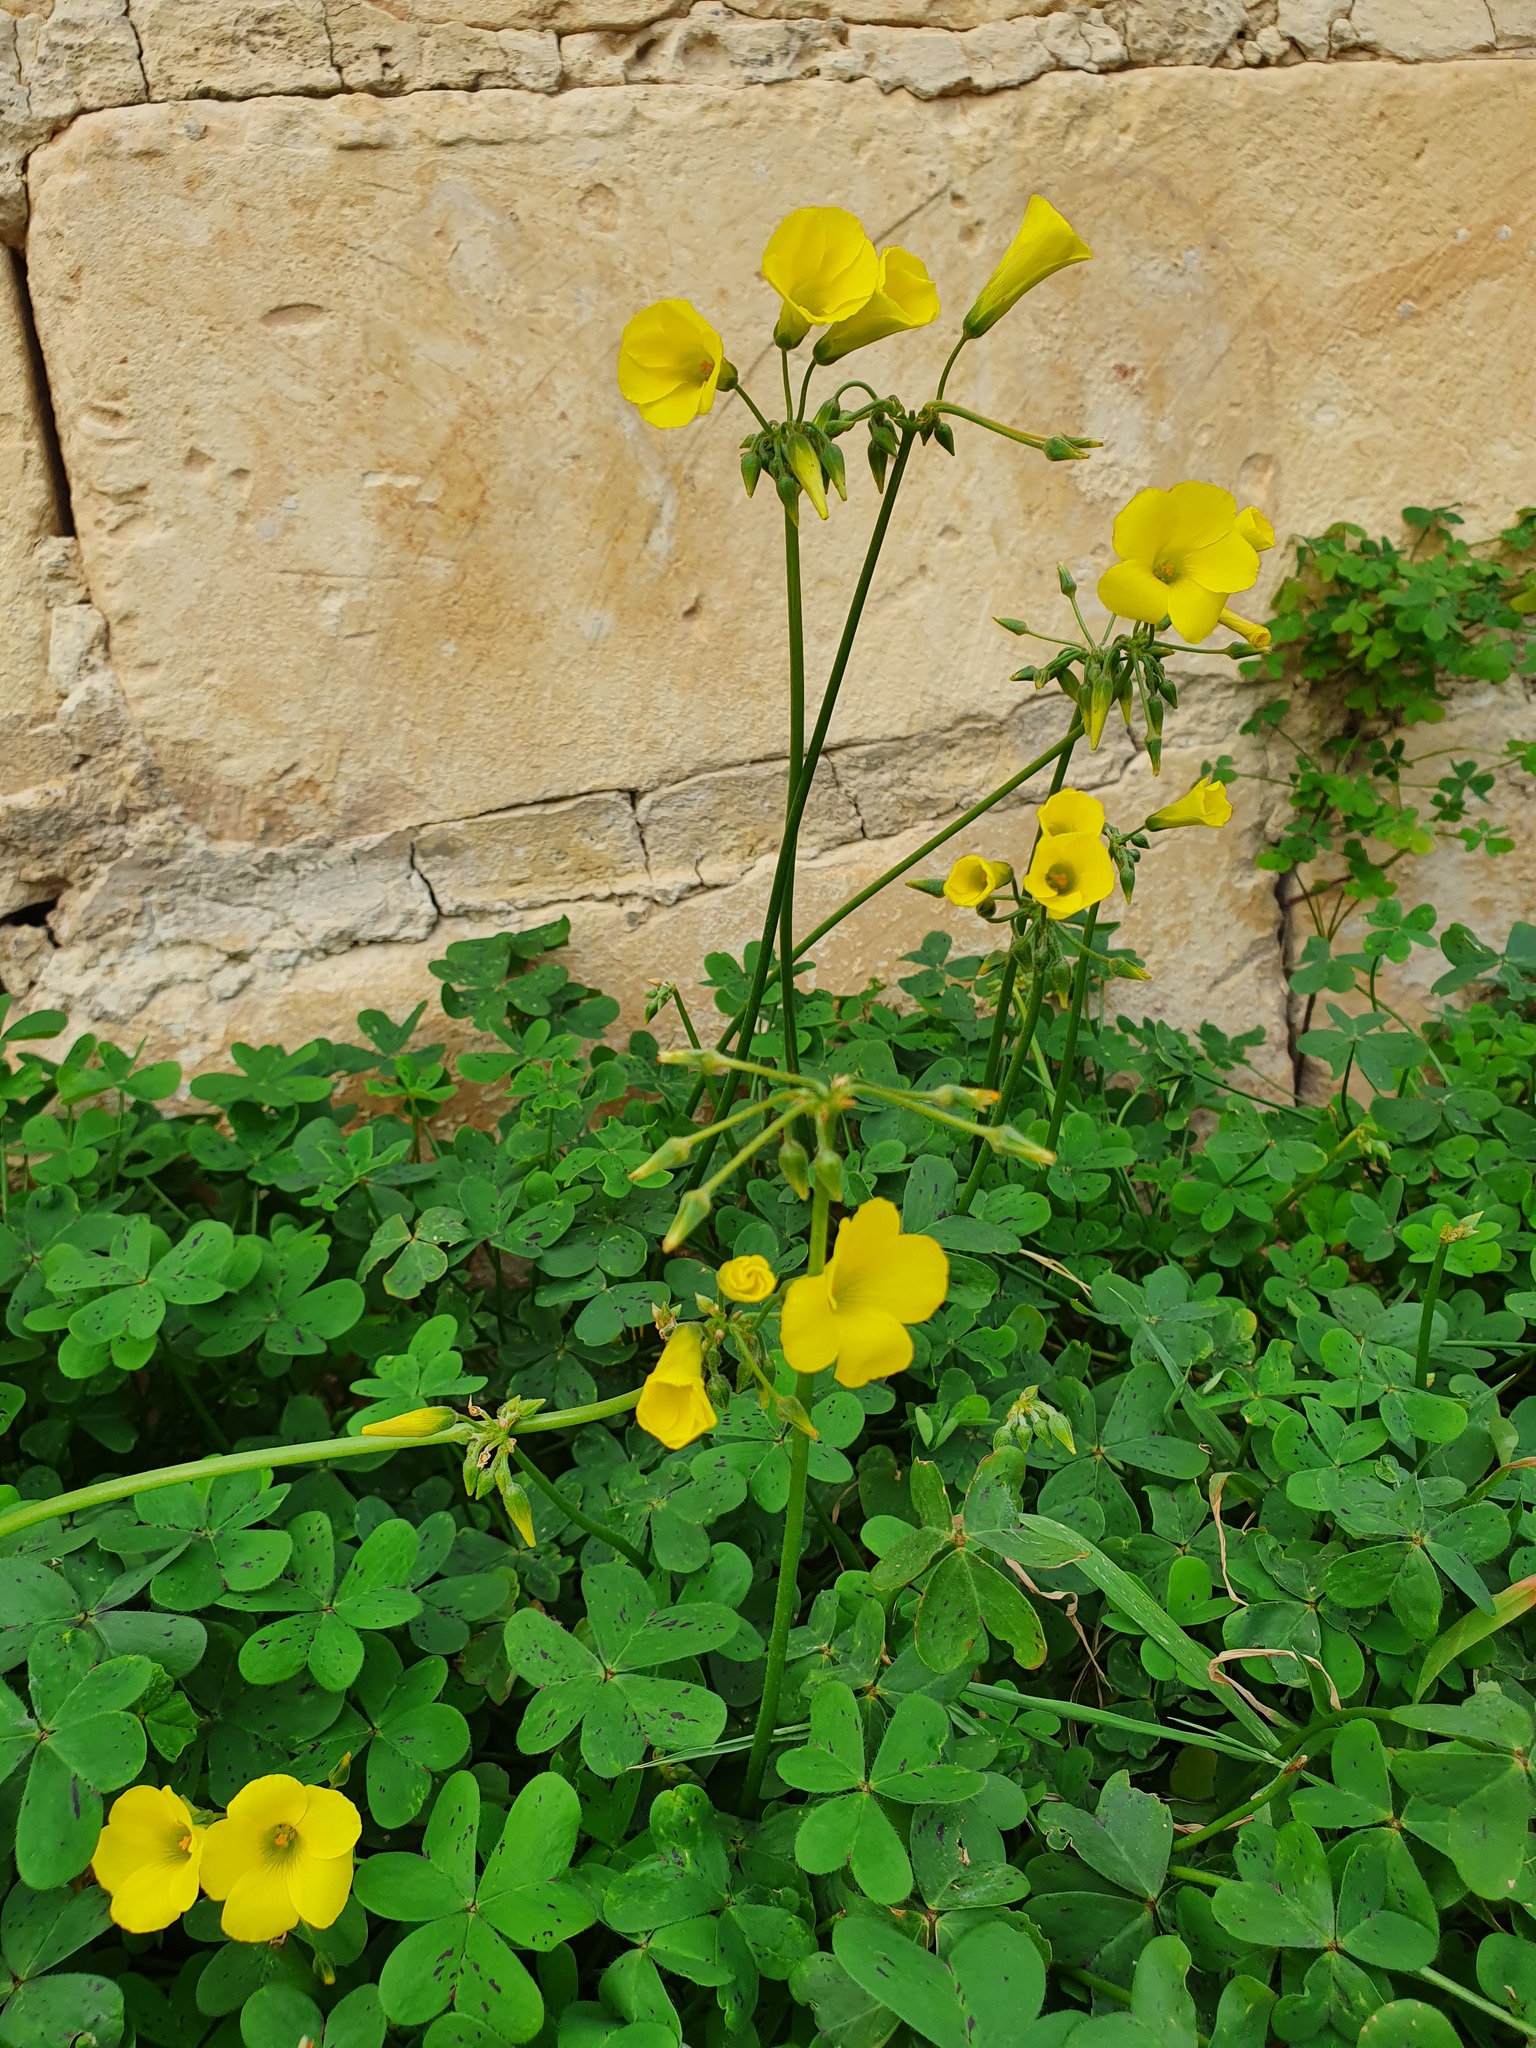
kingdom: Plantae
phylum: Tracheophyta
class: Magnoliopsida
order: Oxalidales
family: Oxalidaceae
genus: Oxalis
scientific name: Oxalis pes-caprae
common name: Bermuda-buttercup
